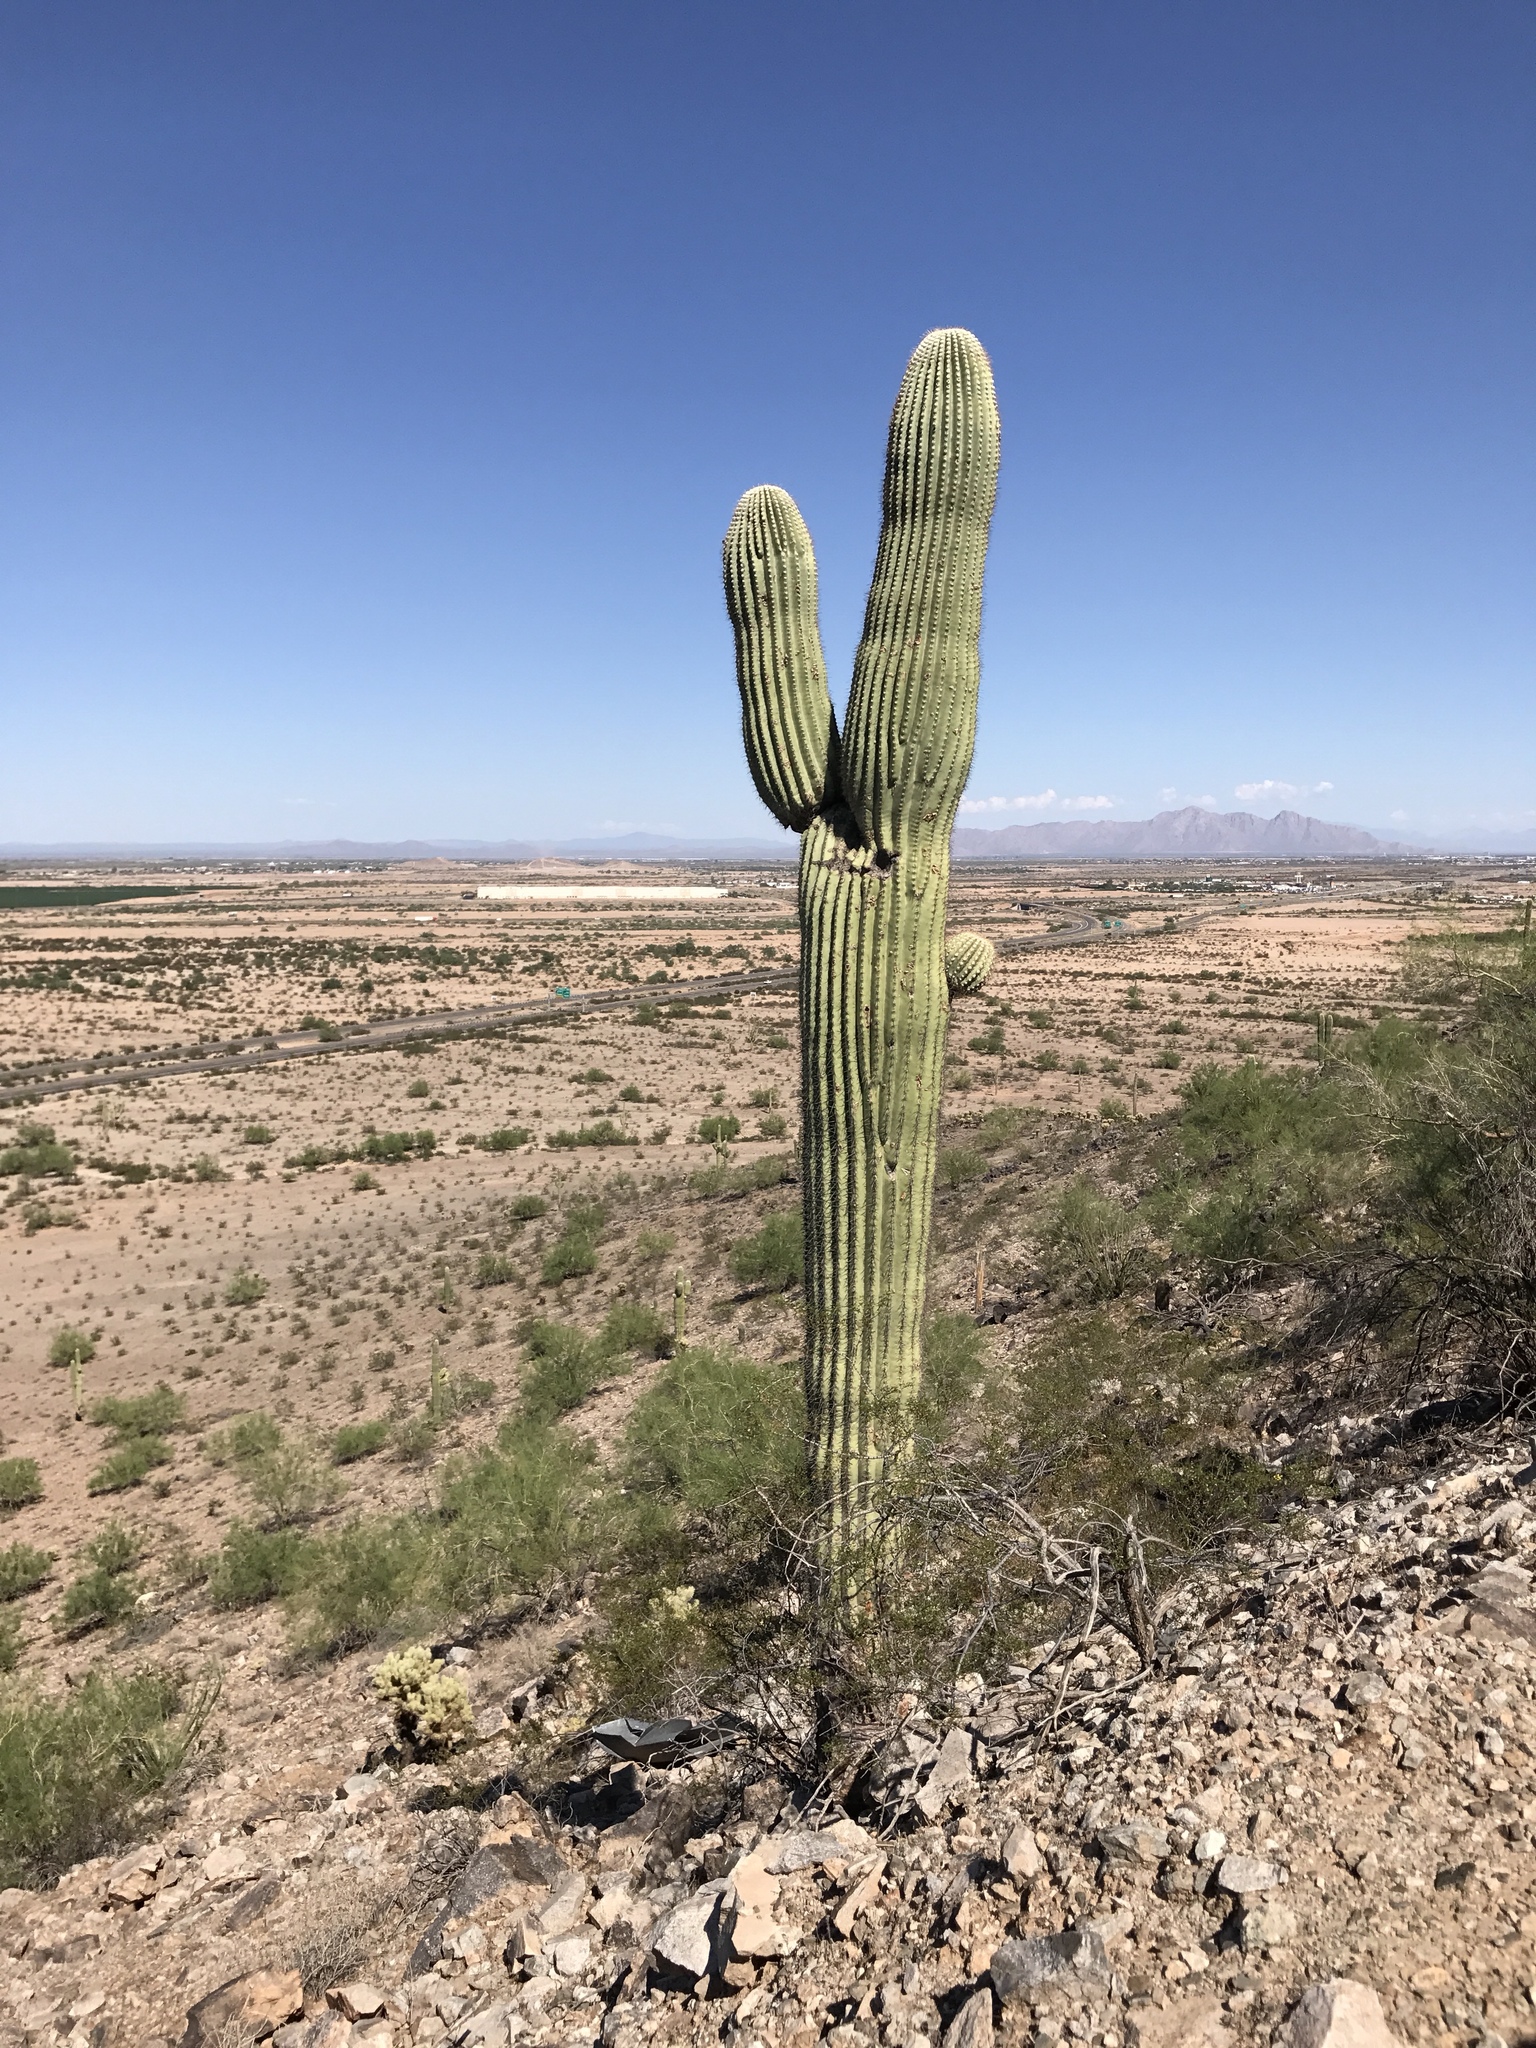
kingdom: Plantae
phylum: Tracheophyta
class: Magnoliopsida
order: Caryophyllales
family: Cactaceae
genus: Carnegiea
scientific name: Carnegiea gigantea
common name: Saguaro
